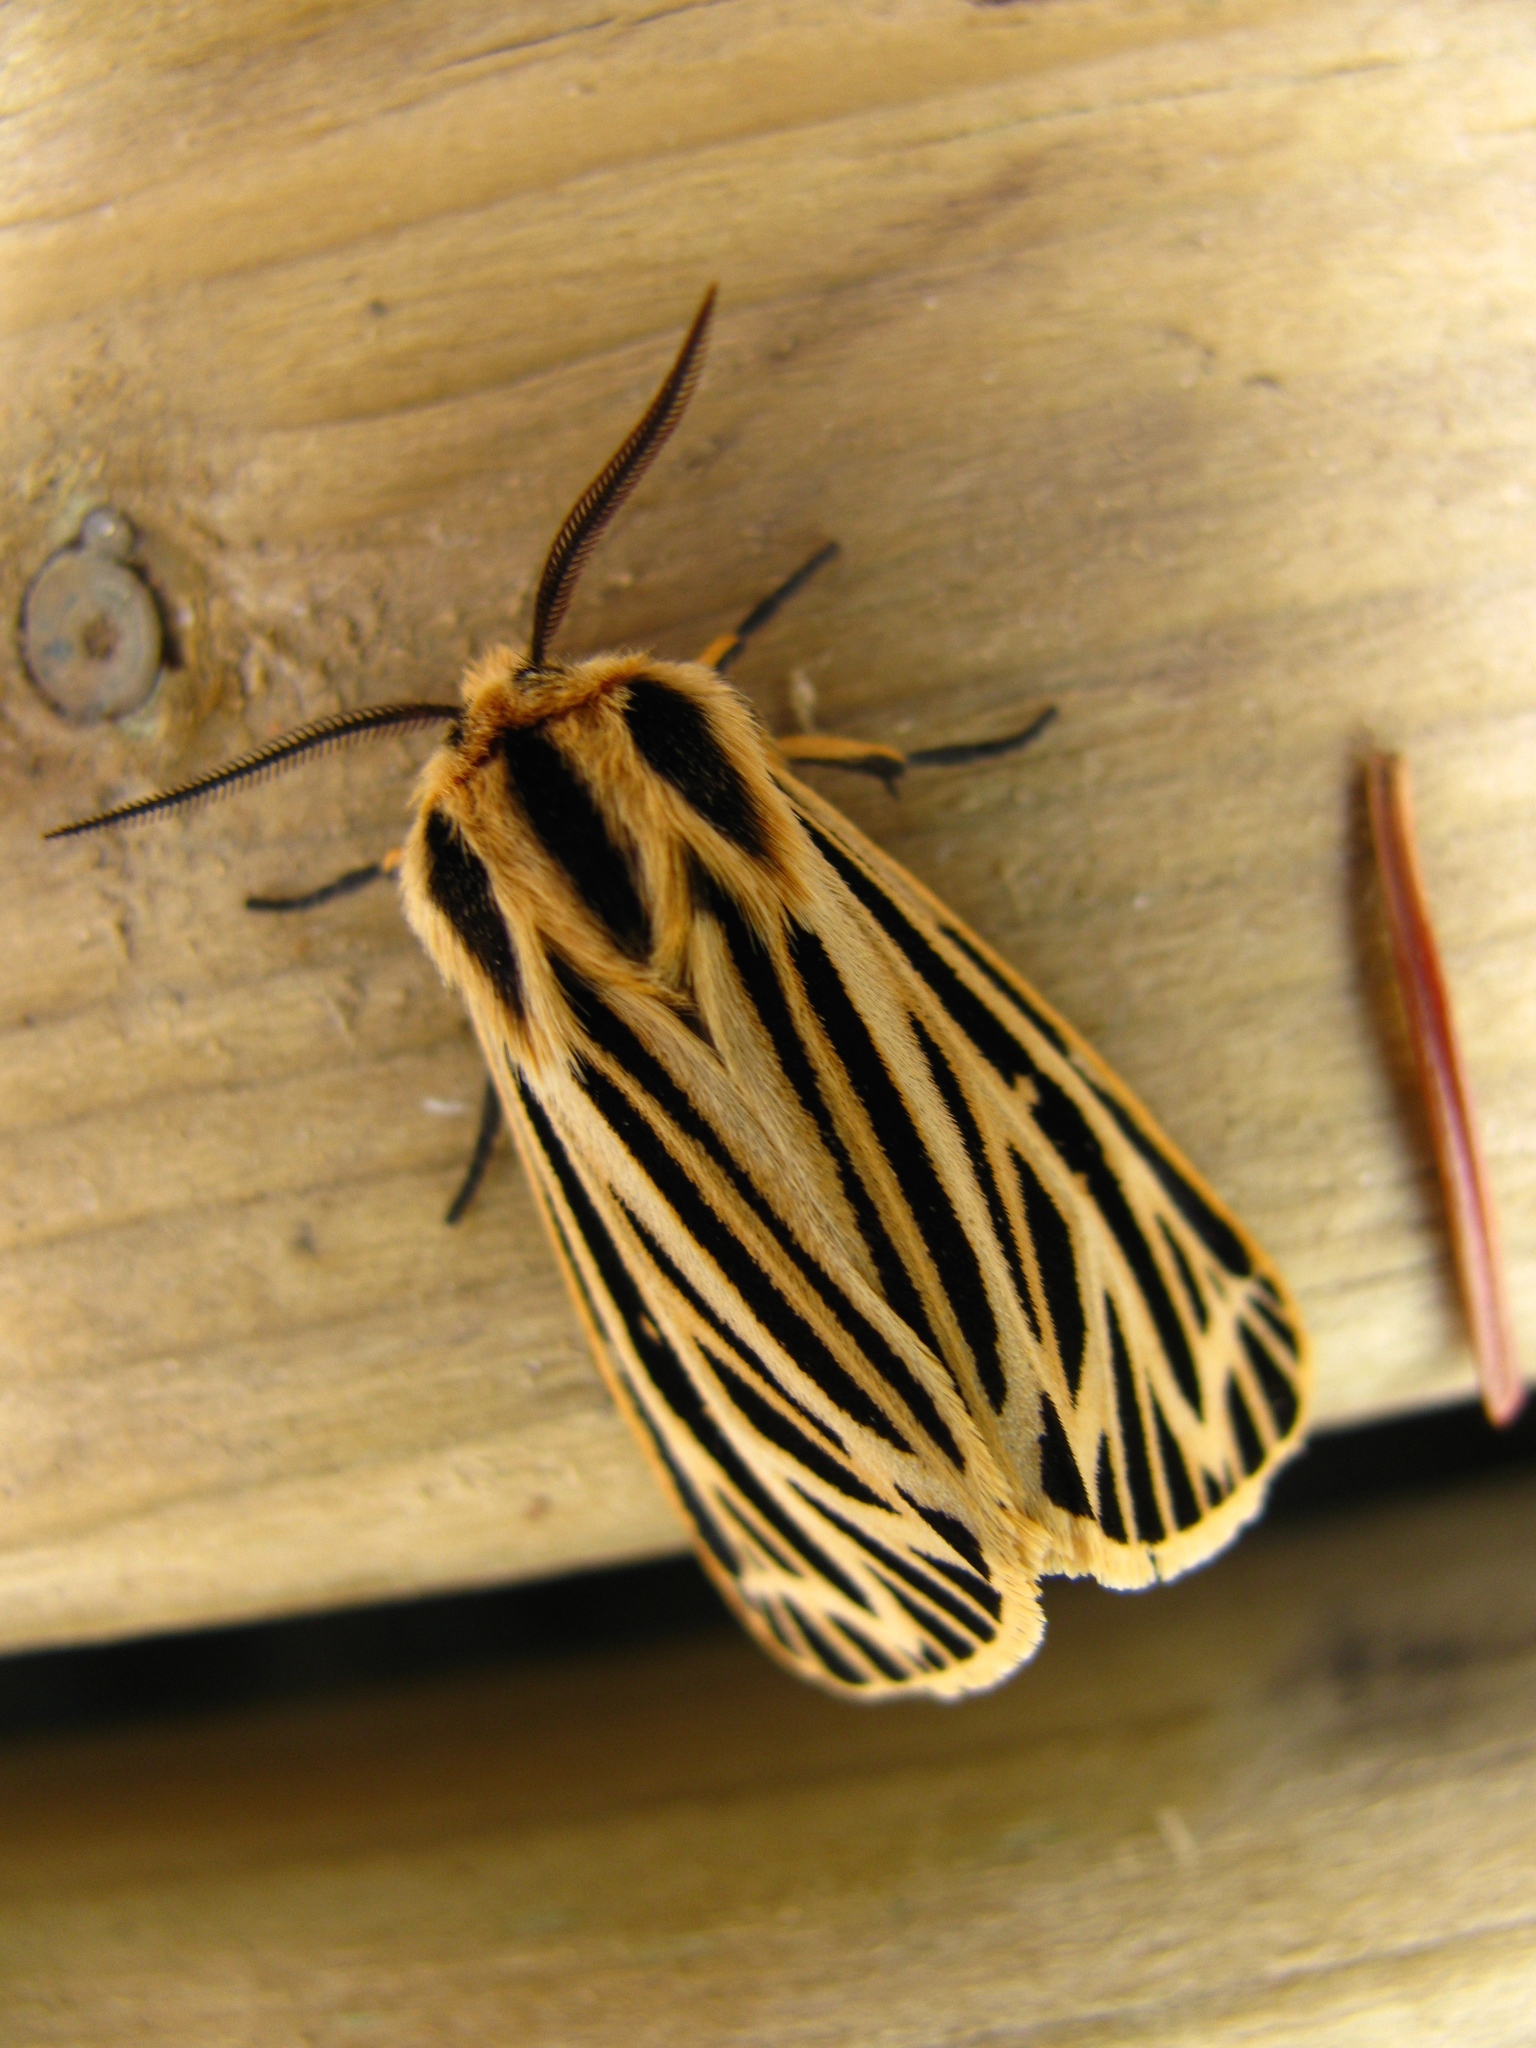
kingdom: Animalia
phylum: Arthropoda
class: Insecta
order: Lepidoptera
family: Erebidae
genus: Grammia
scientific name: Grammia virguncula
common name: Little tiger moth
